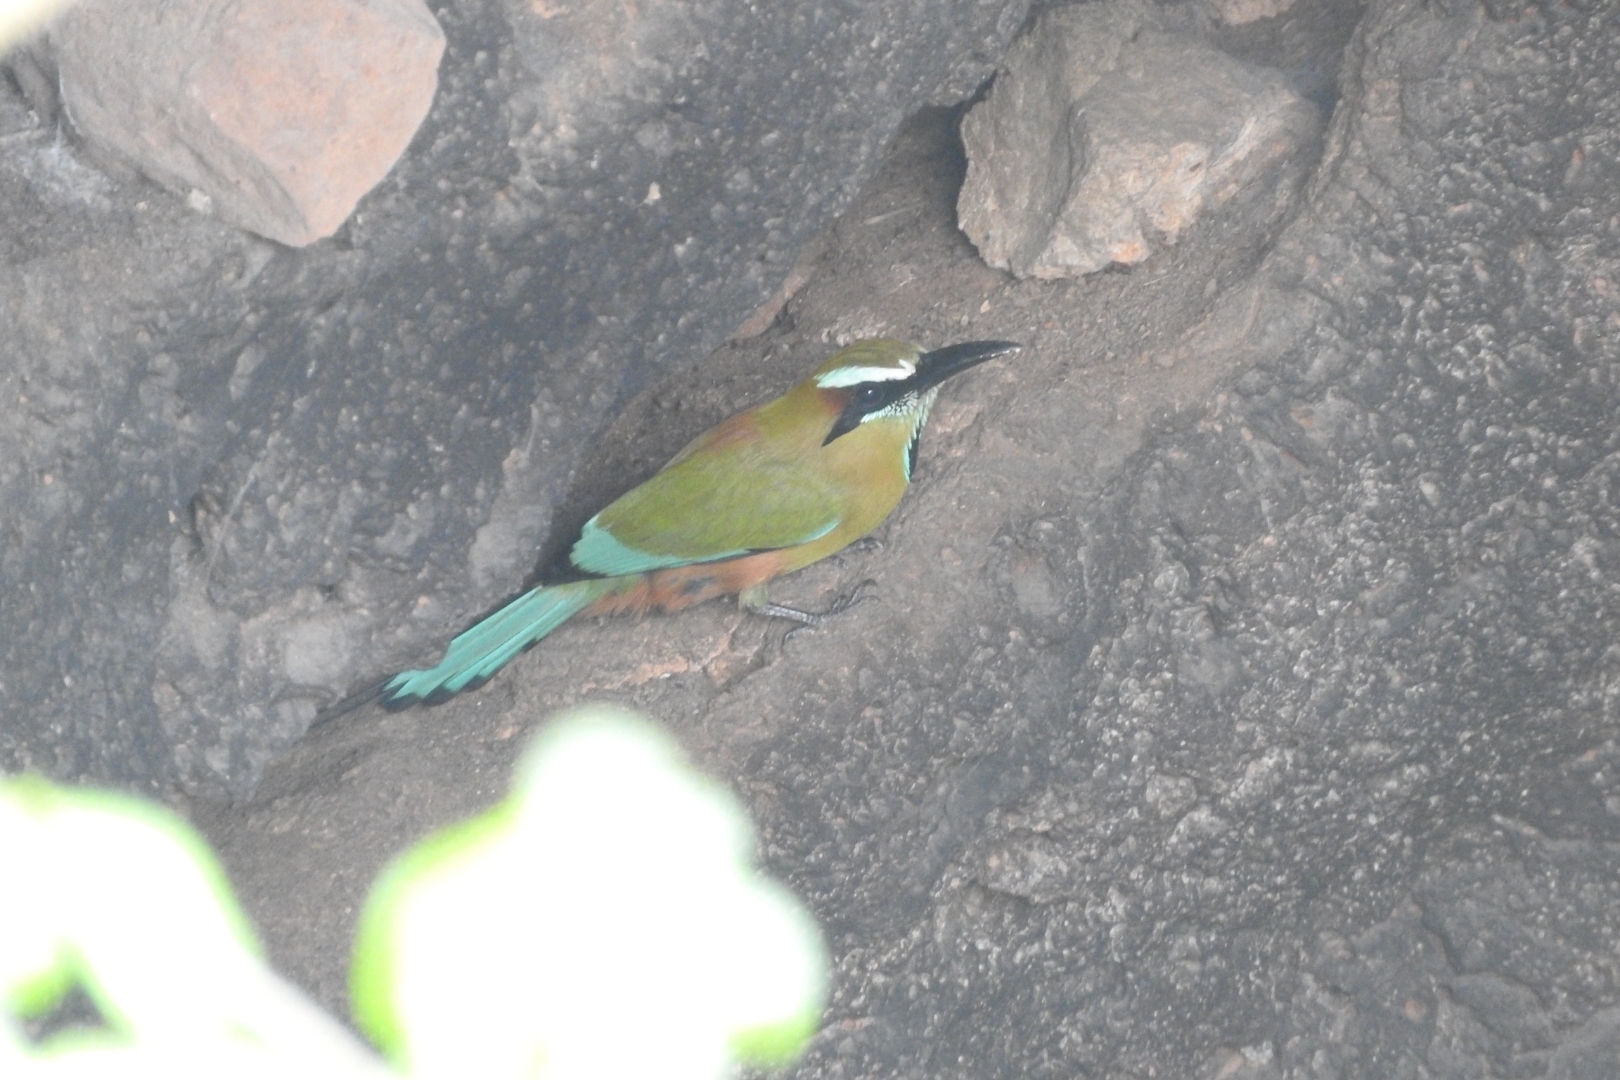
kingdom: Animalia
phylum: Chordata
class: Aves
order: Coraciiformes
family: Momotidae
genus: Eumomota
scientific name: Eumomota superciliosa
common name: Turquoise-browed motmot
